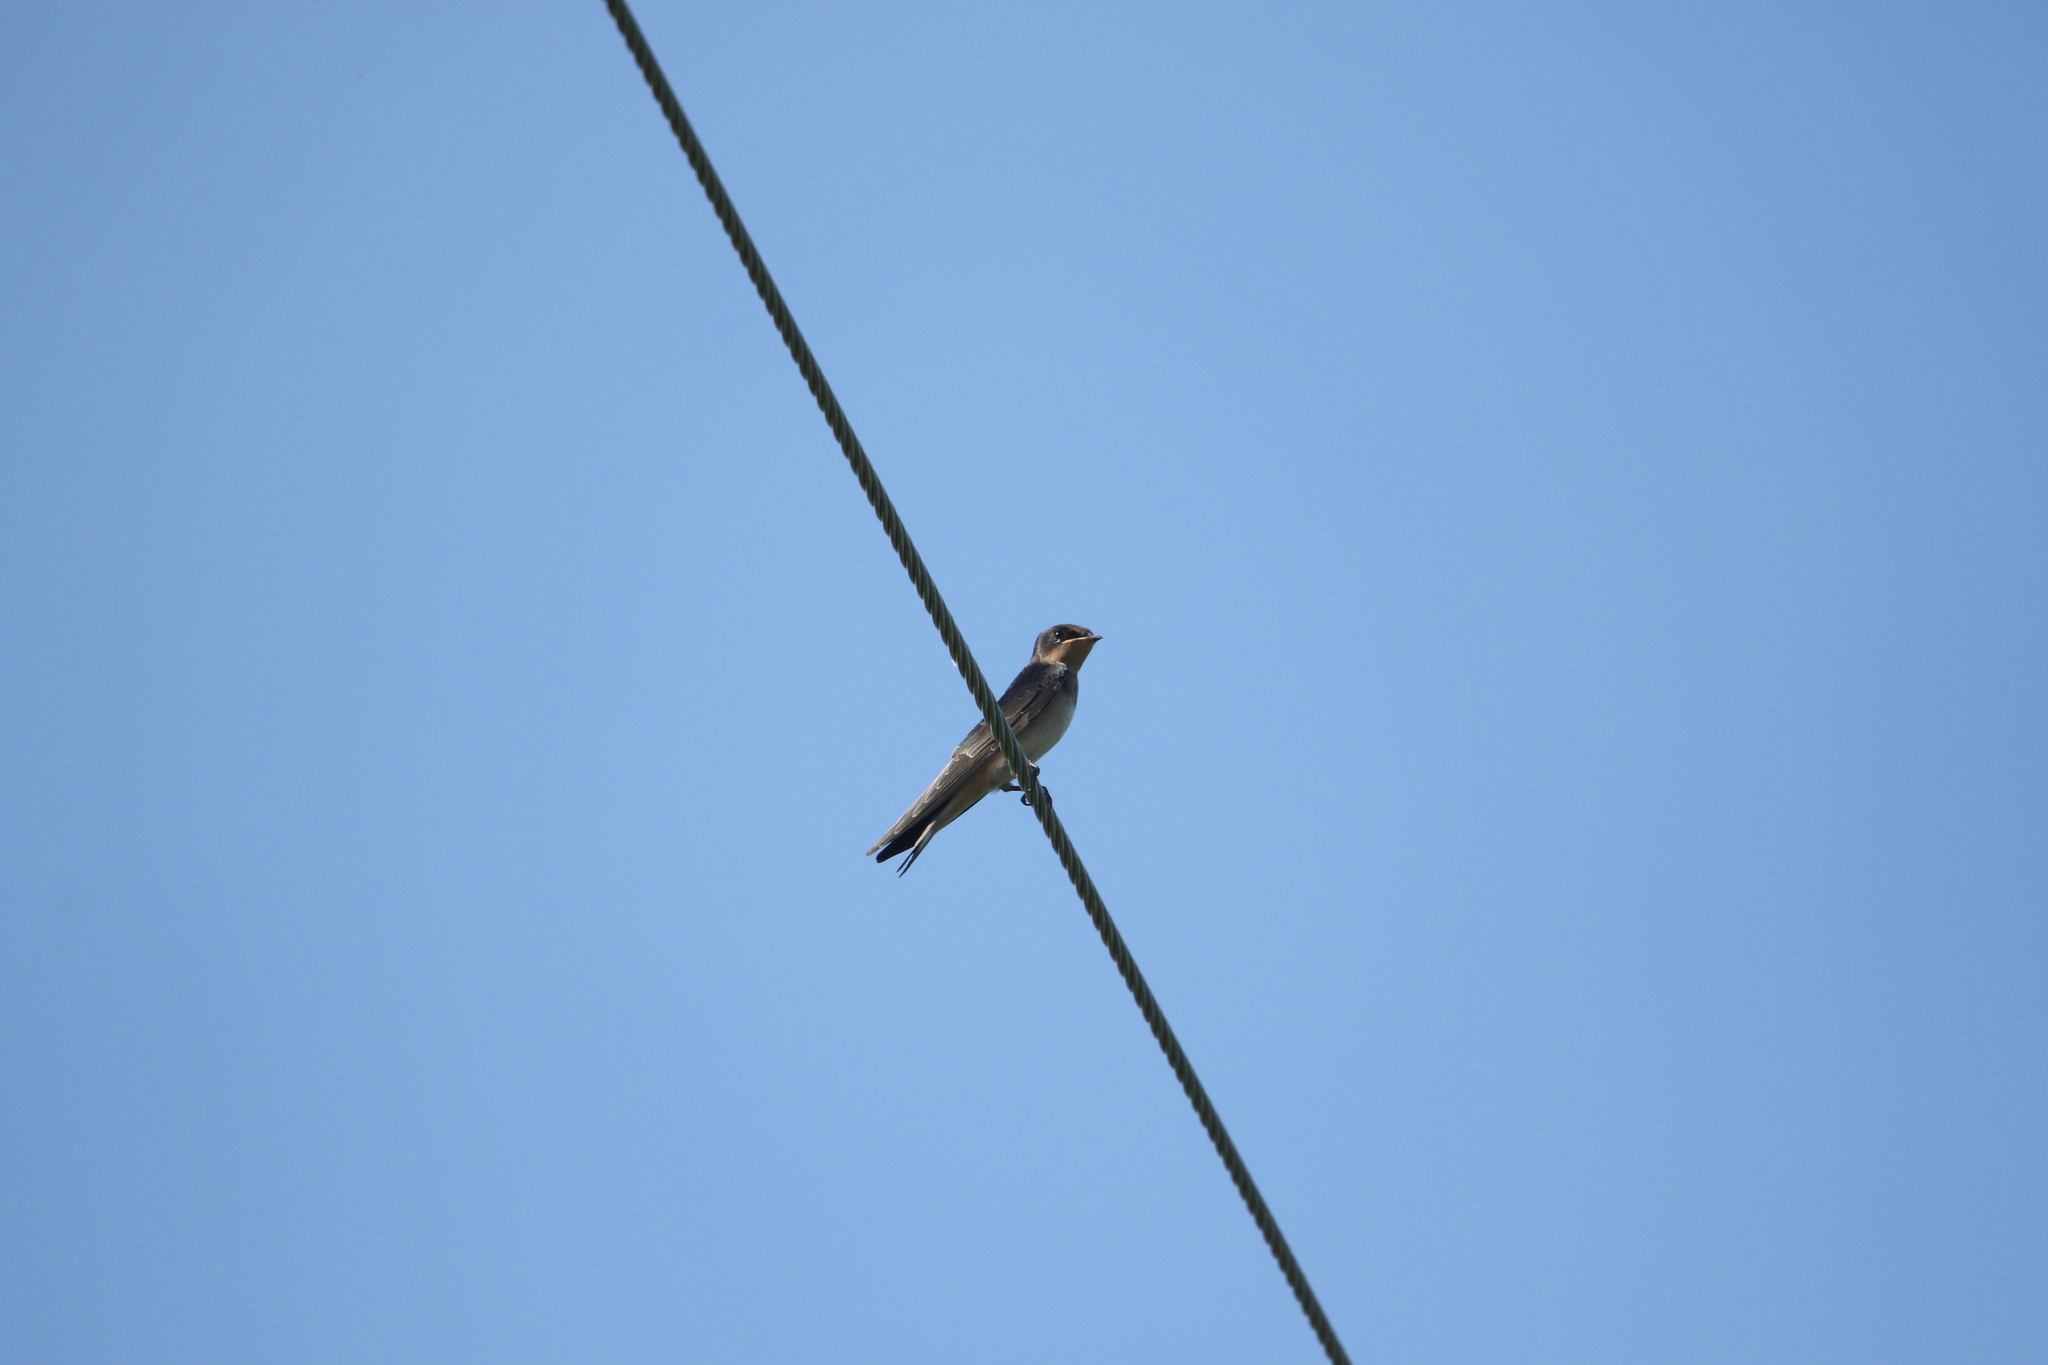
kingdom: Animalia
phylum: Chordata
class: Aves
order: Passeriformes
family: Hirundinidae
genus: Hirundo
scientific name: Hirundo rustica
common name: Barn swallow
